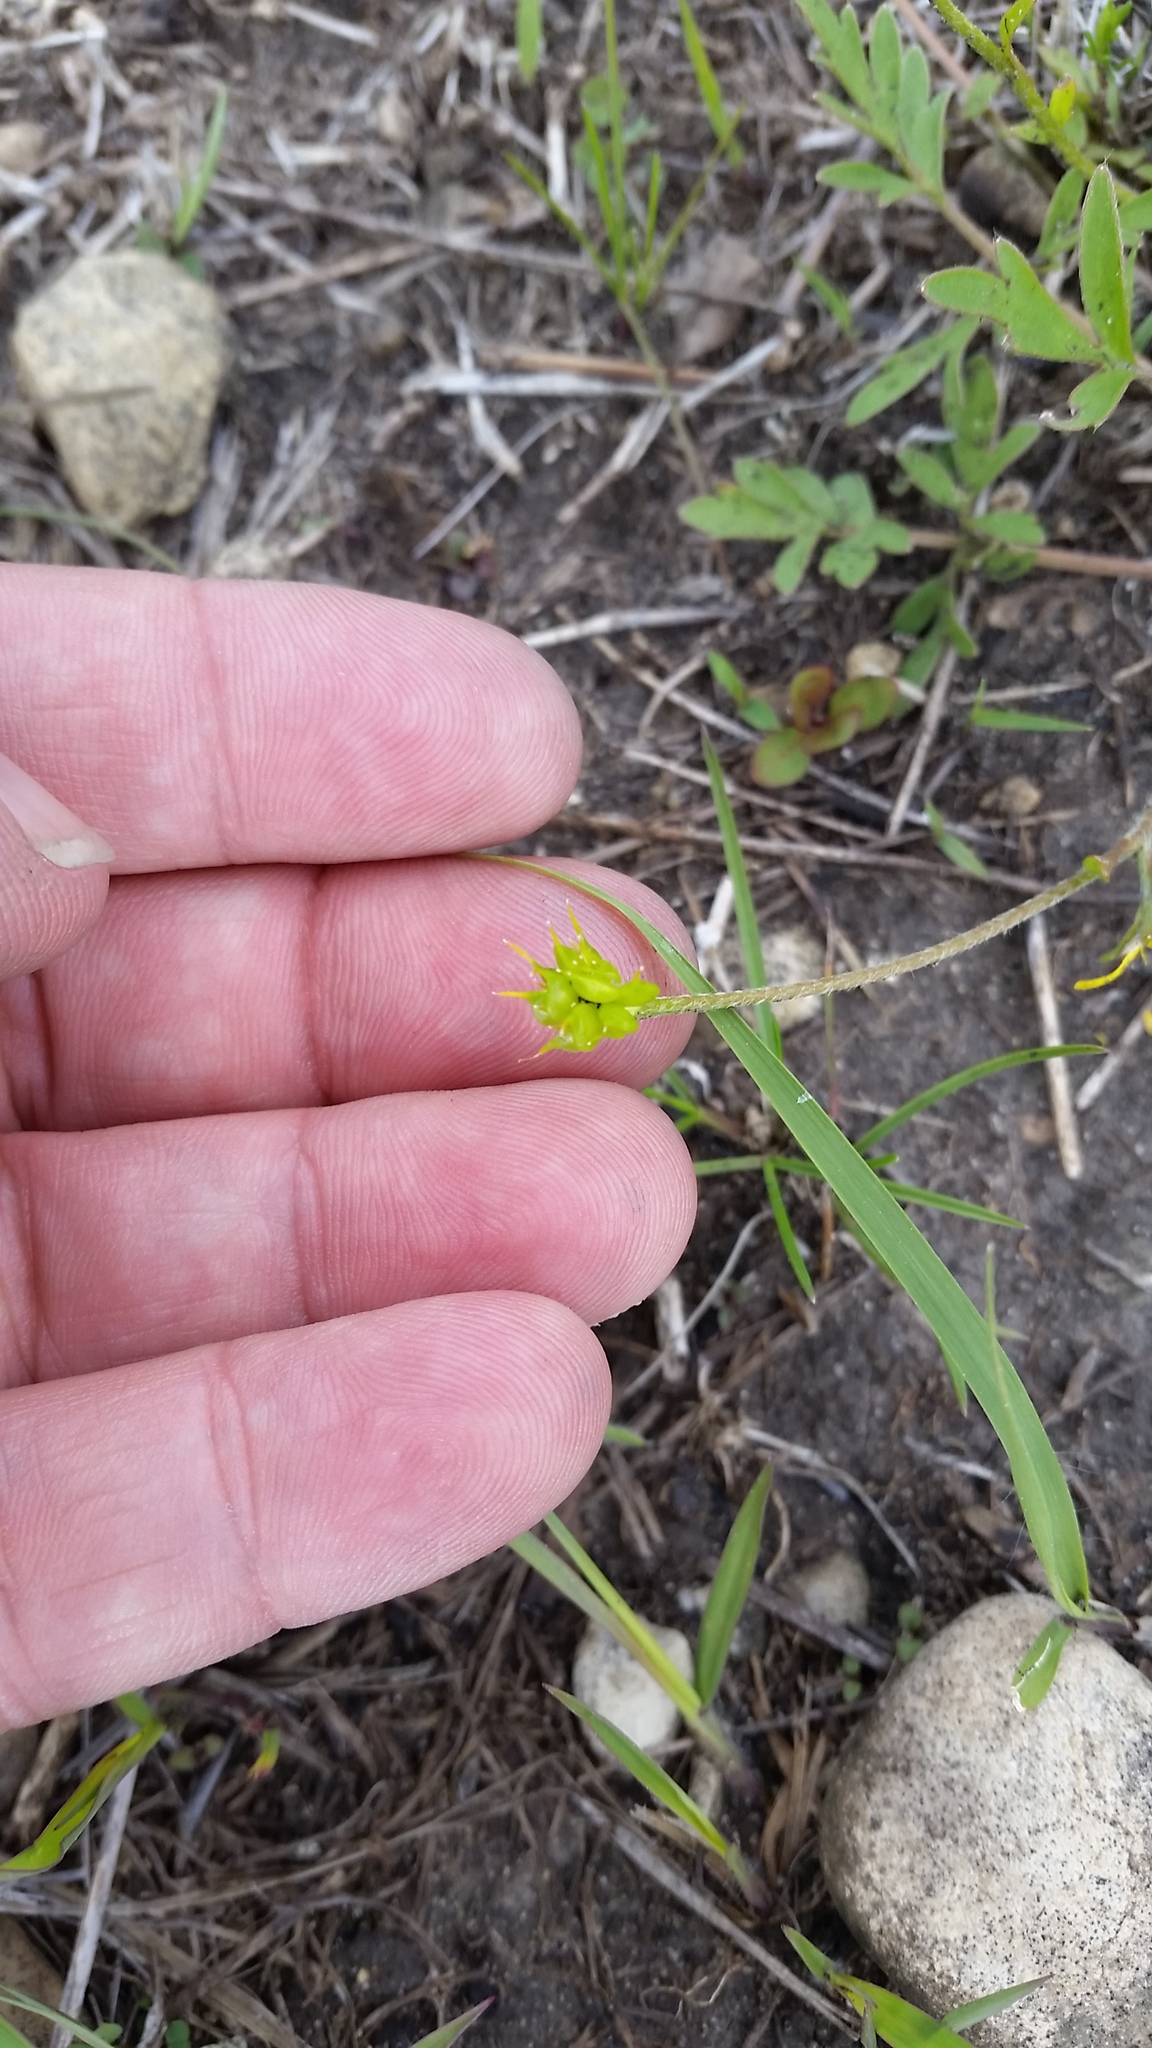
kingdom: Plantae
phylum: Tracheophyta
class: Magnoliopsida
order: Ranunculales
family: Ranunculaceae
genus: Ranunculus
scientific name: Ranunculus fascicularis
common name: Early buttercup
